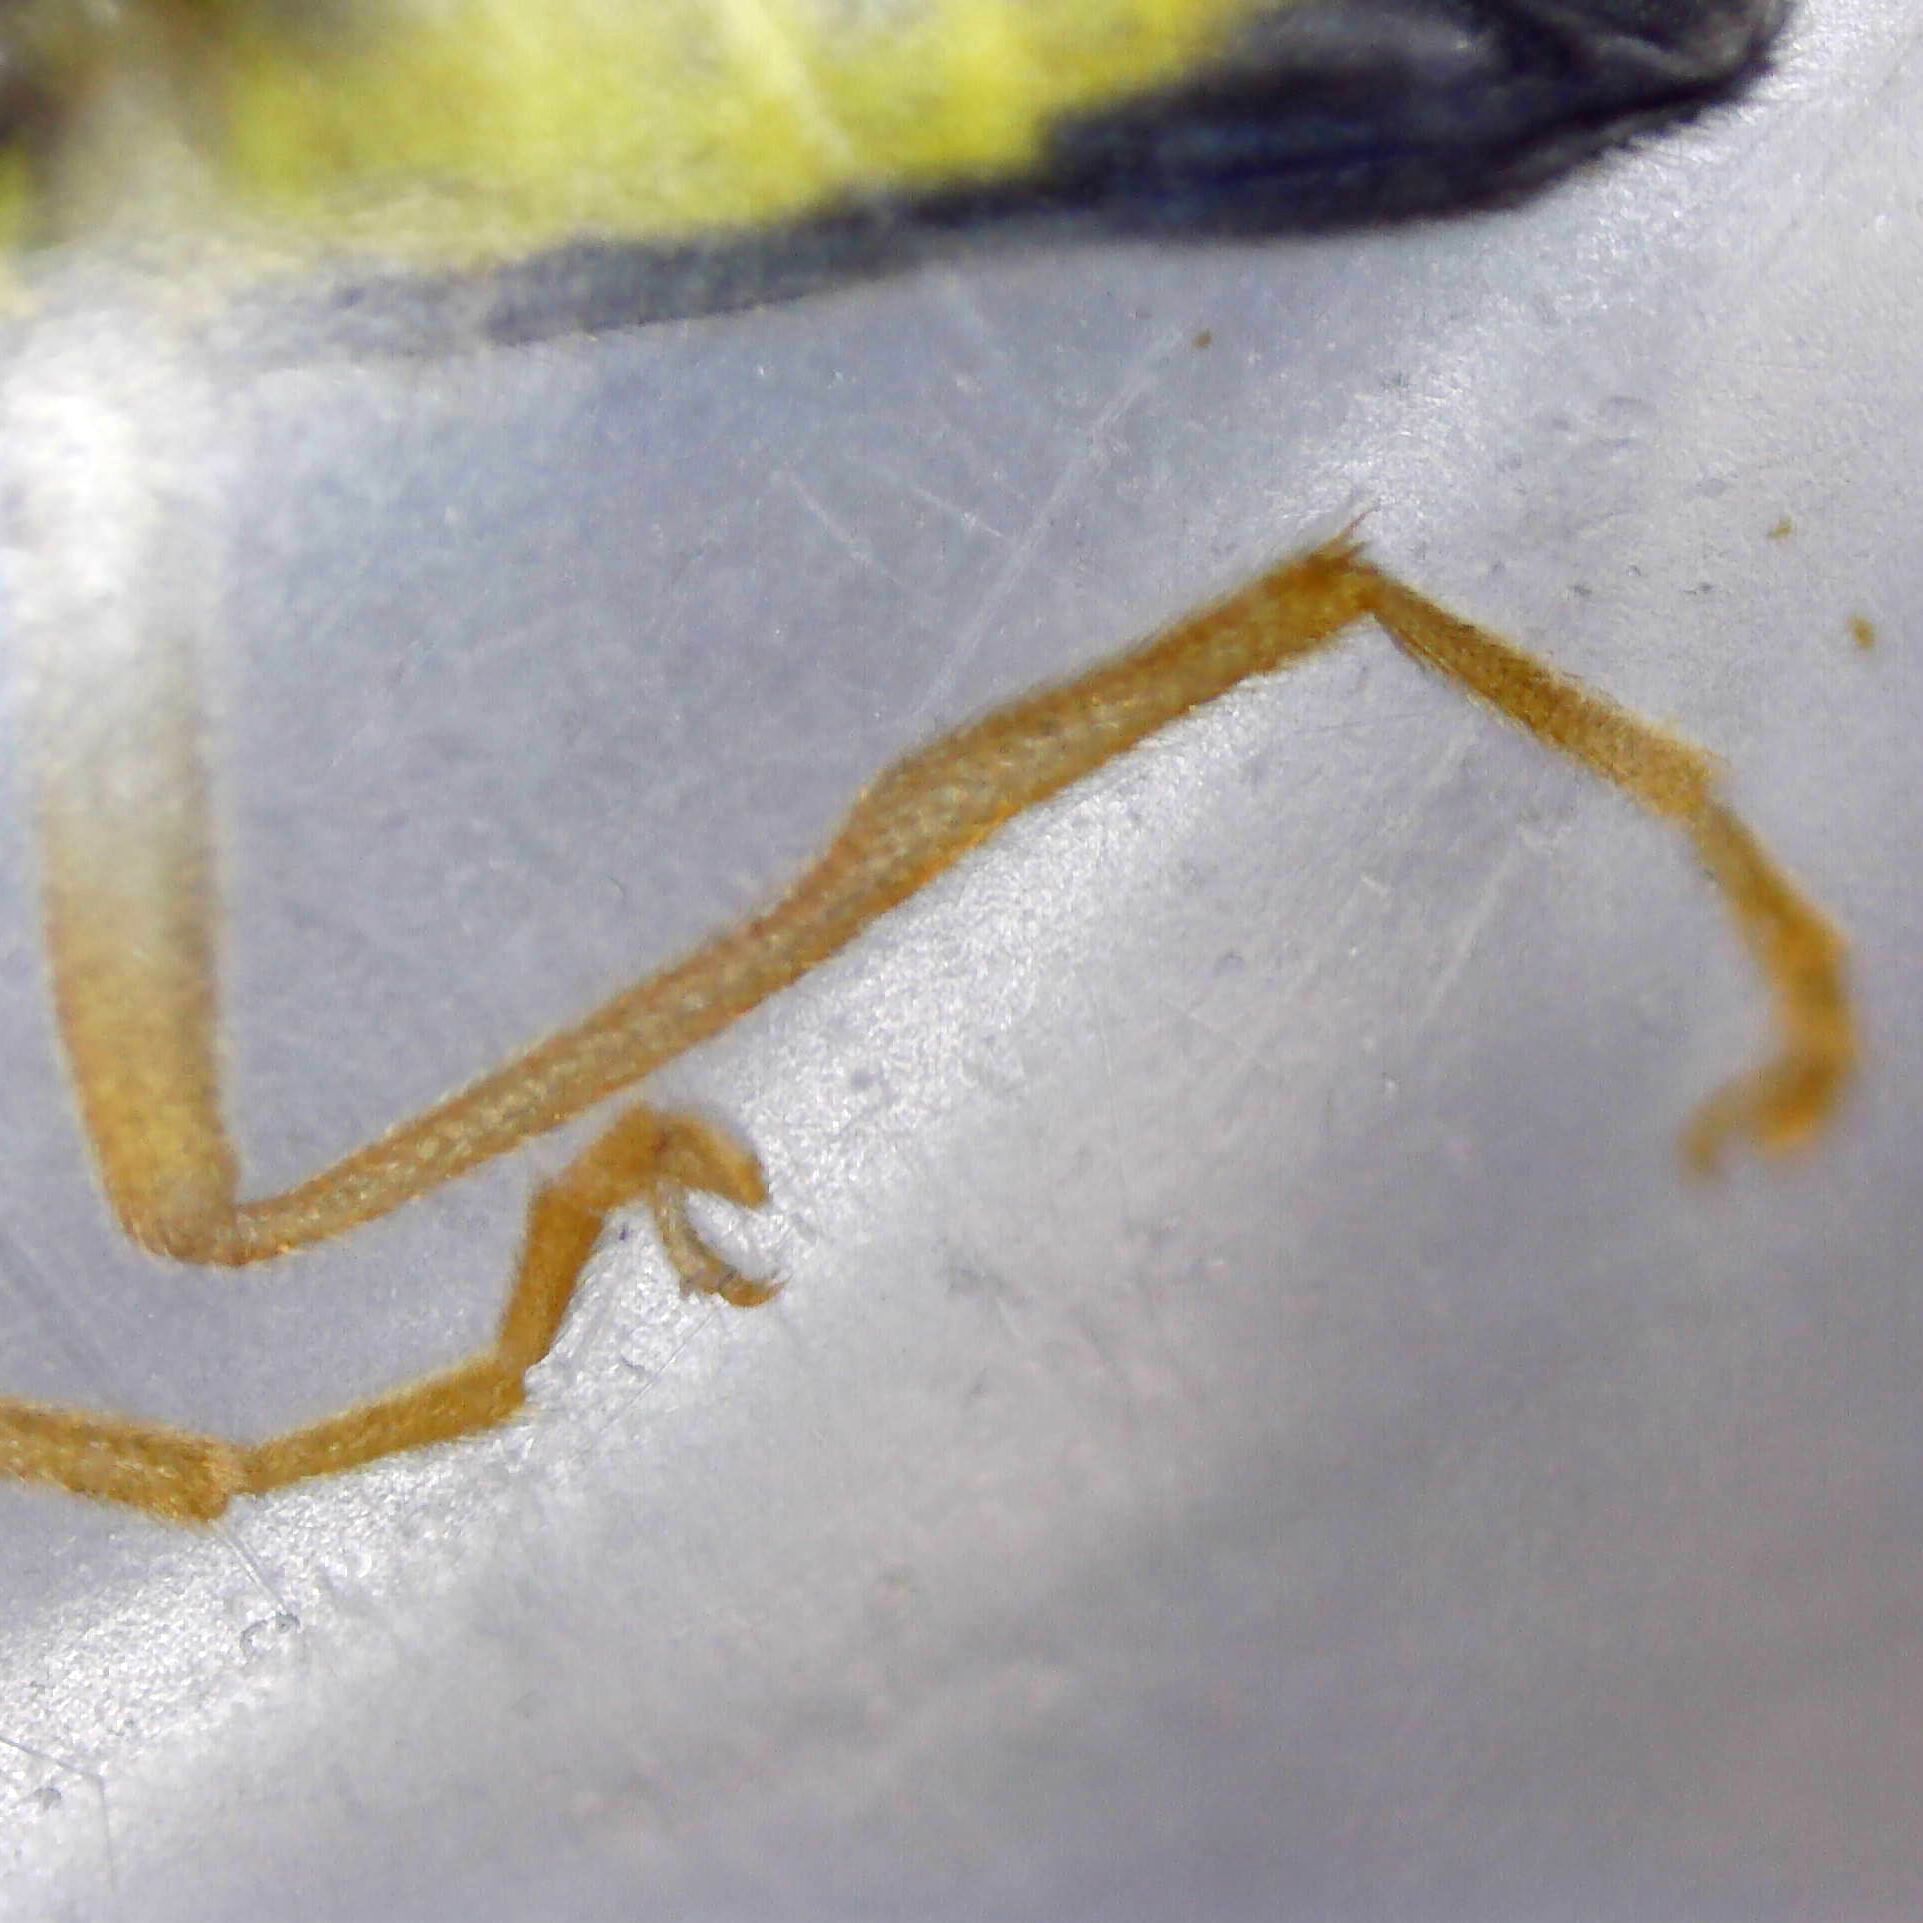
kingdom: Animalia
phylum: Arthropoda
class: Insecta
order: Coleoptera
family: Cantharidae
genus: Malthinus
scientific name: Malthinus balteatus
